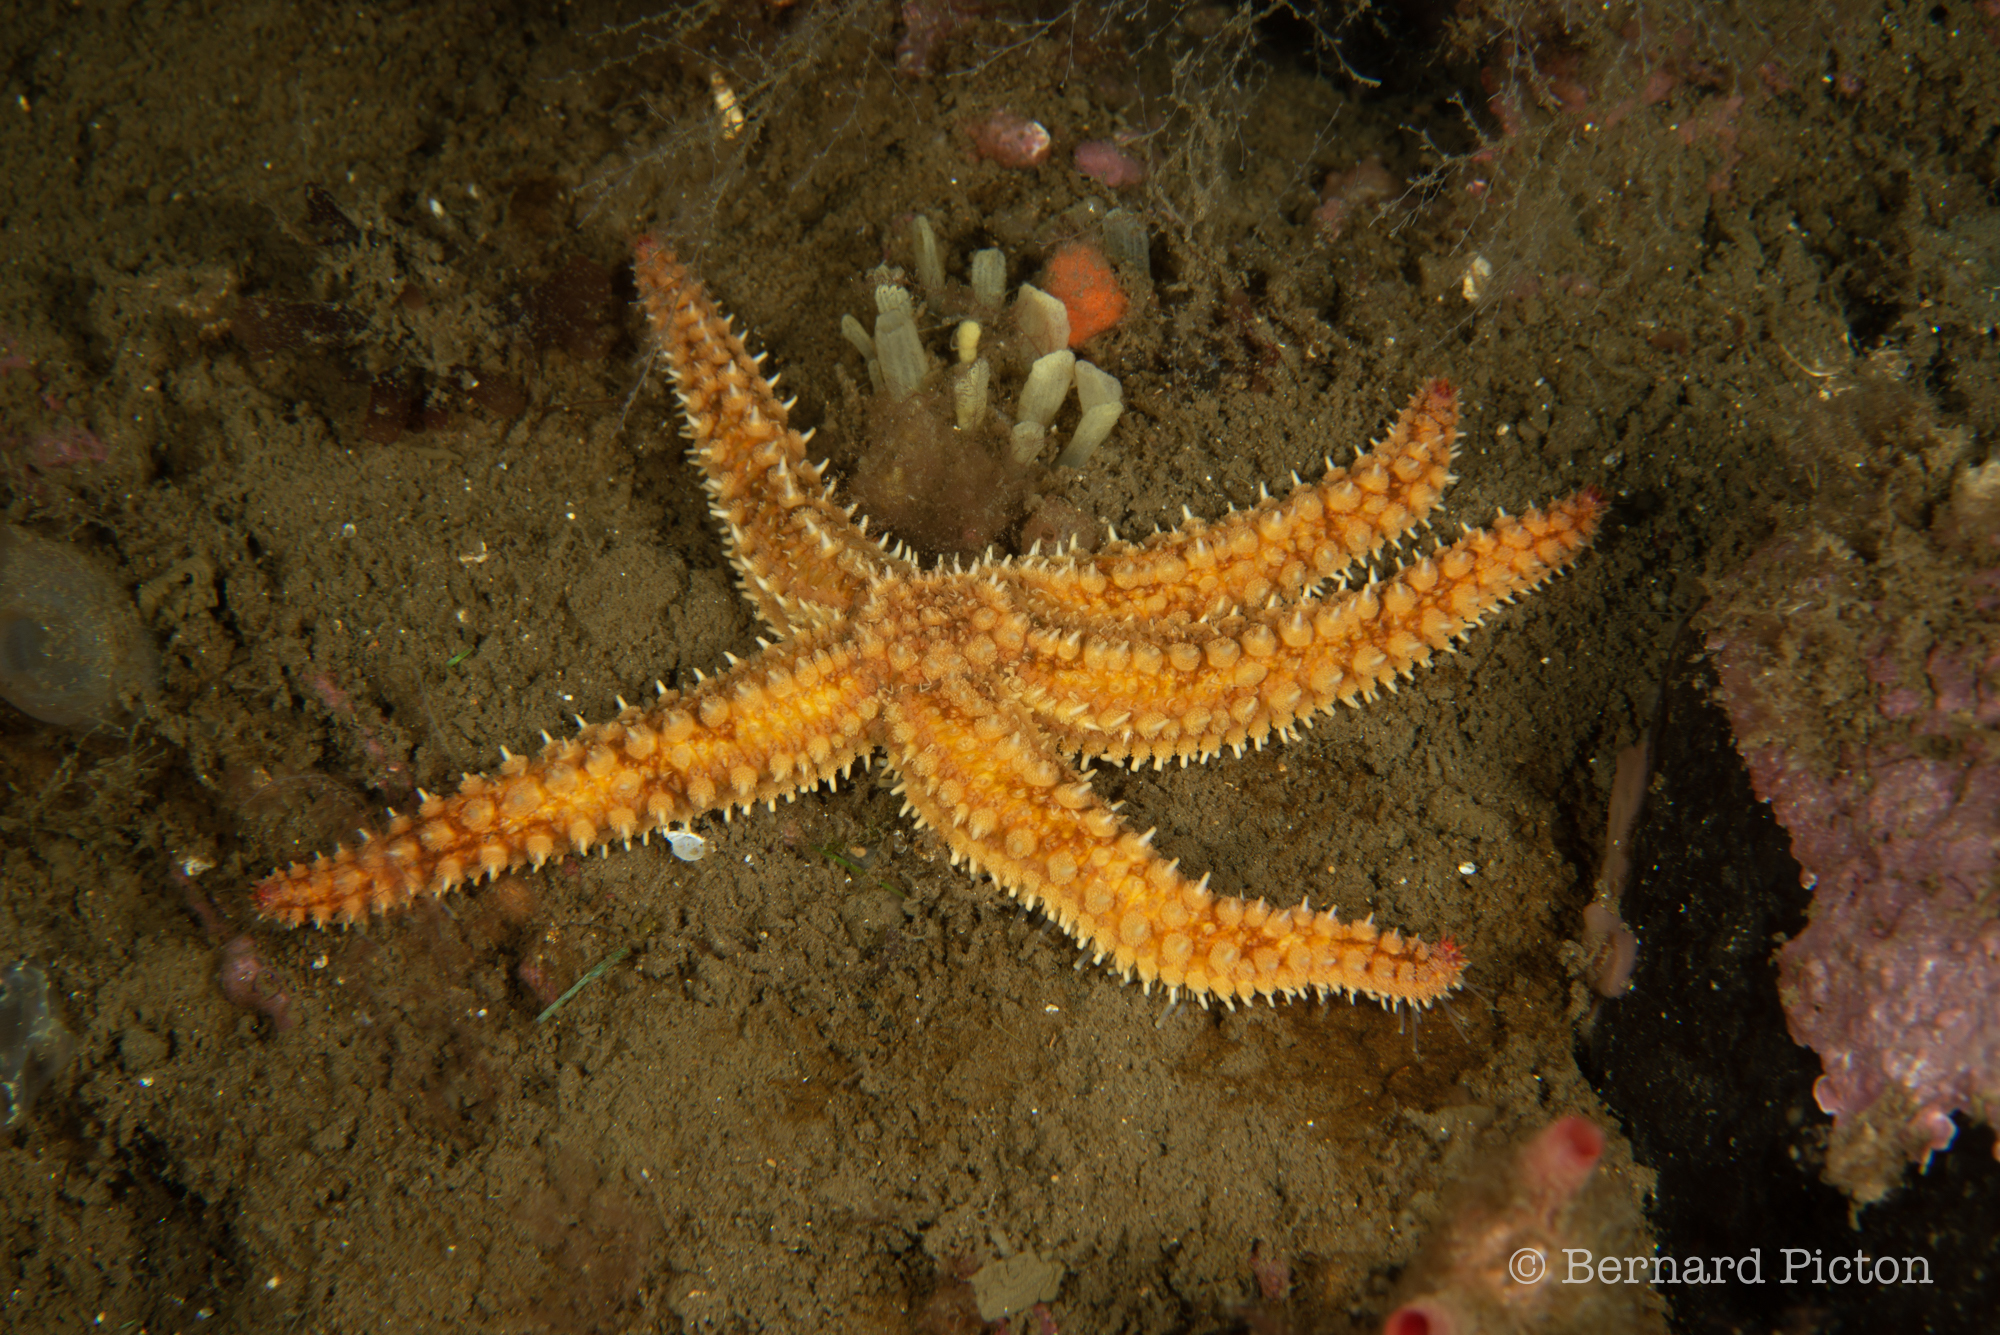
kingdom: Animalia
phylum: Echinodermata
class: Asteroidea
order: Forcipulatida
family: Asteriidae
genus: Marthasterias
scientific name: Marthasterias glacialis
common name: Spiny starfish
